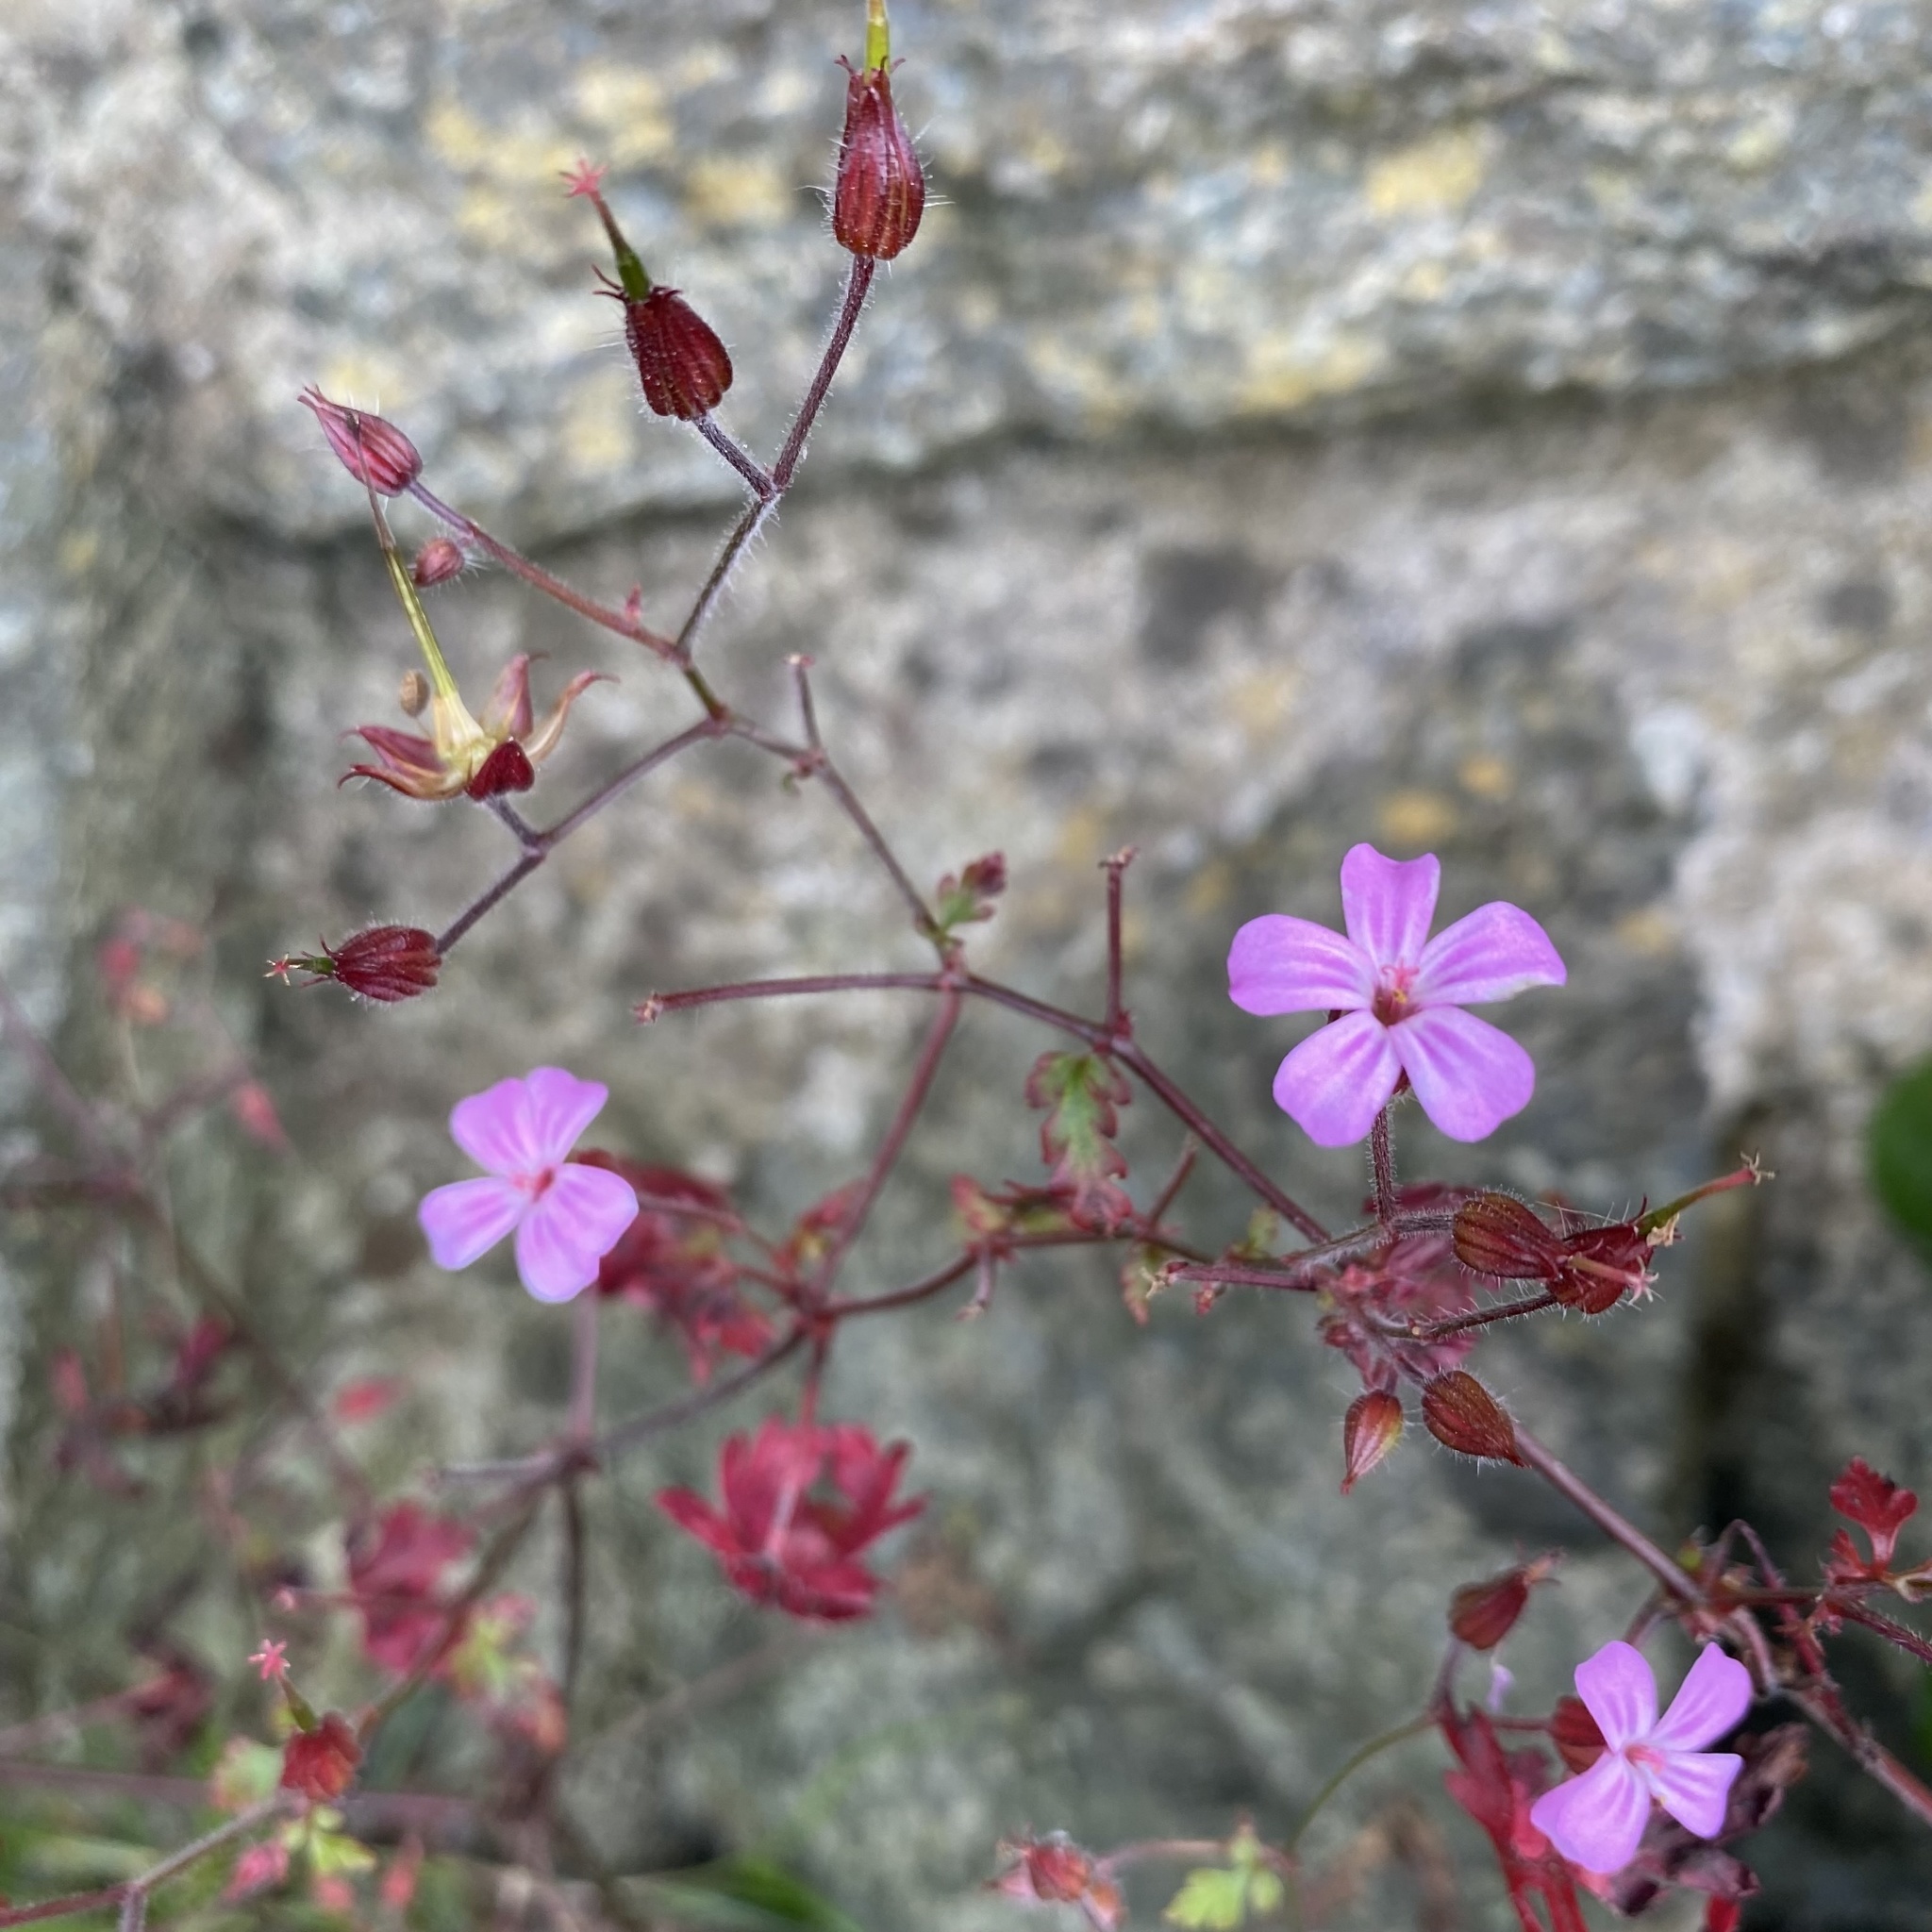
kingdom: Plantae
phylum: Tracheophyta
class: Magnoliopsida
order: Geraniales
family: Geraniaceae
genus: Geranium
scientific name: Geranium robertianum
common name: Herb-robert
